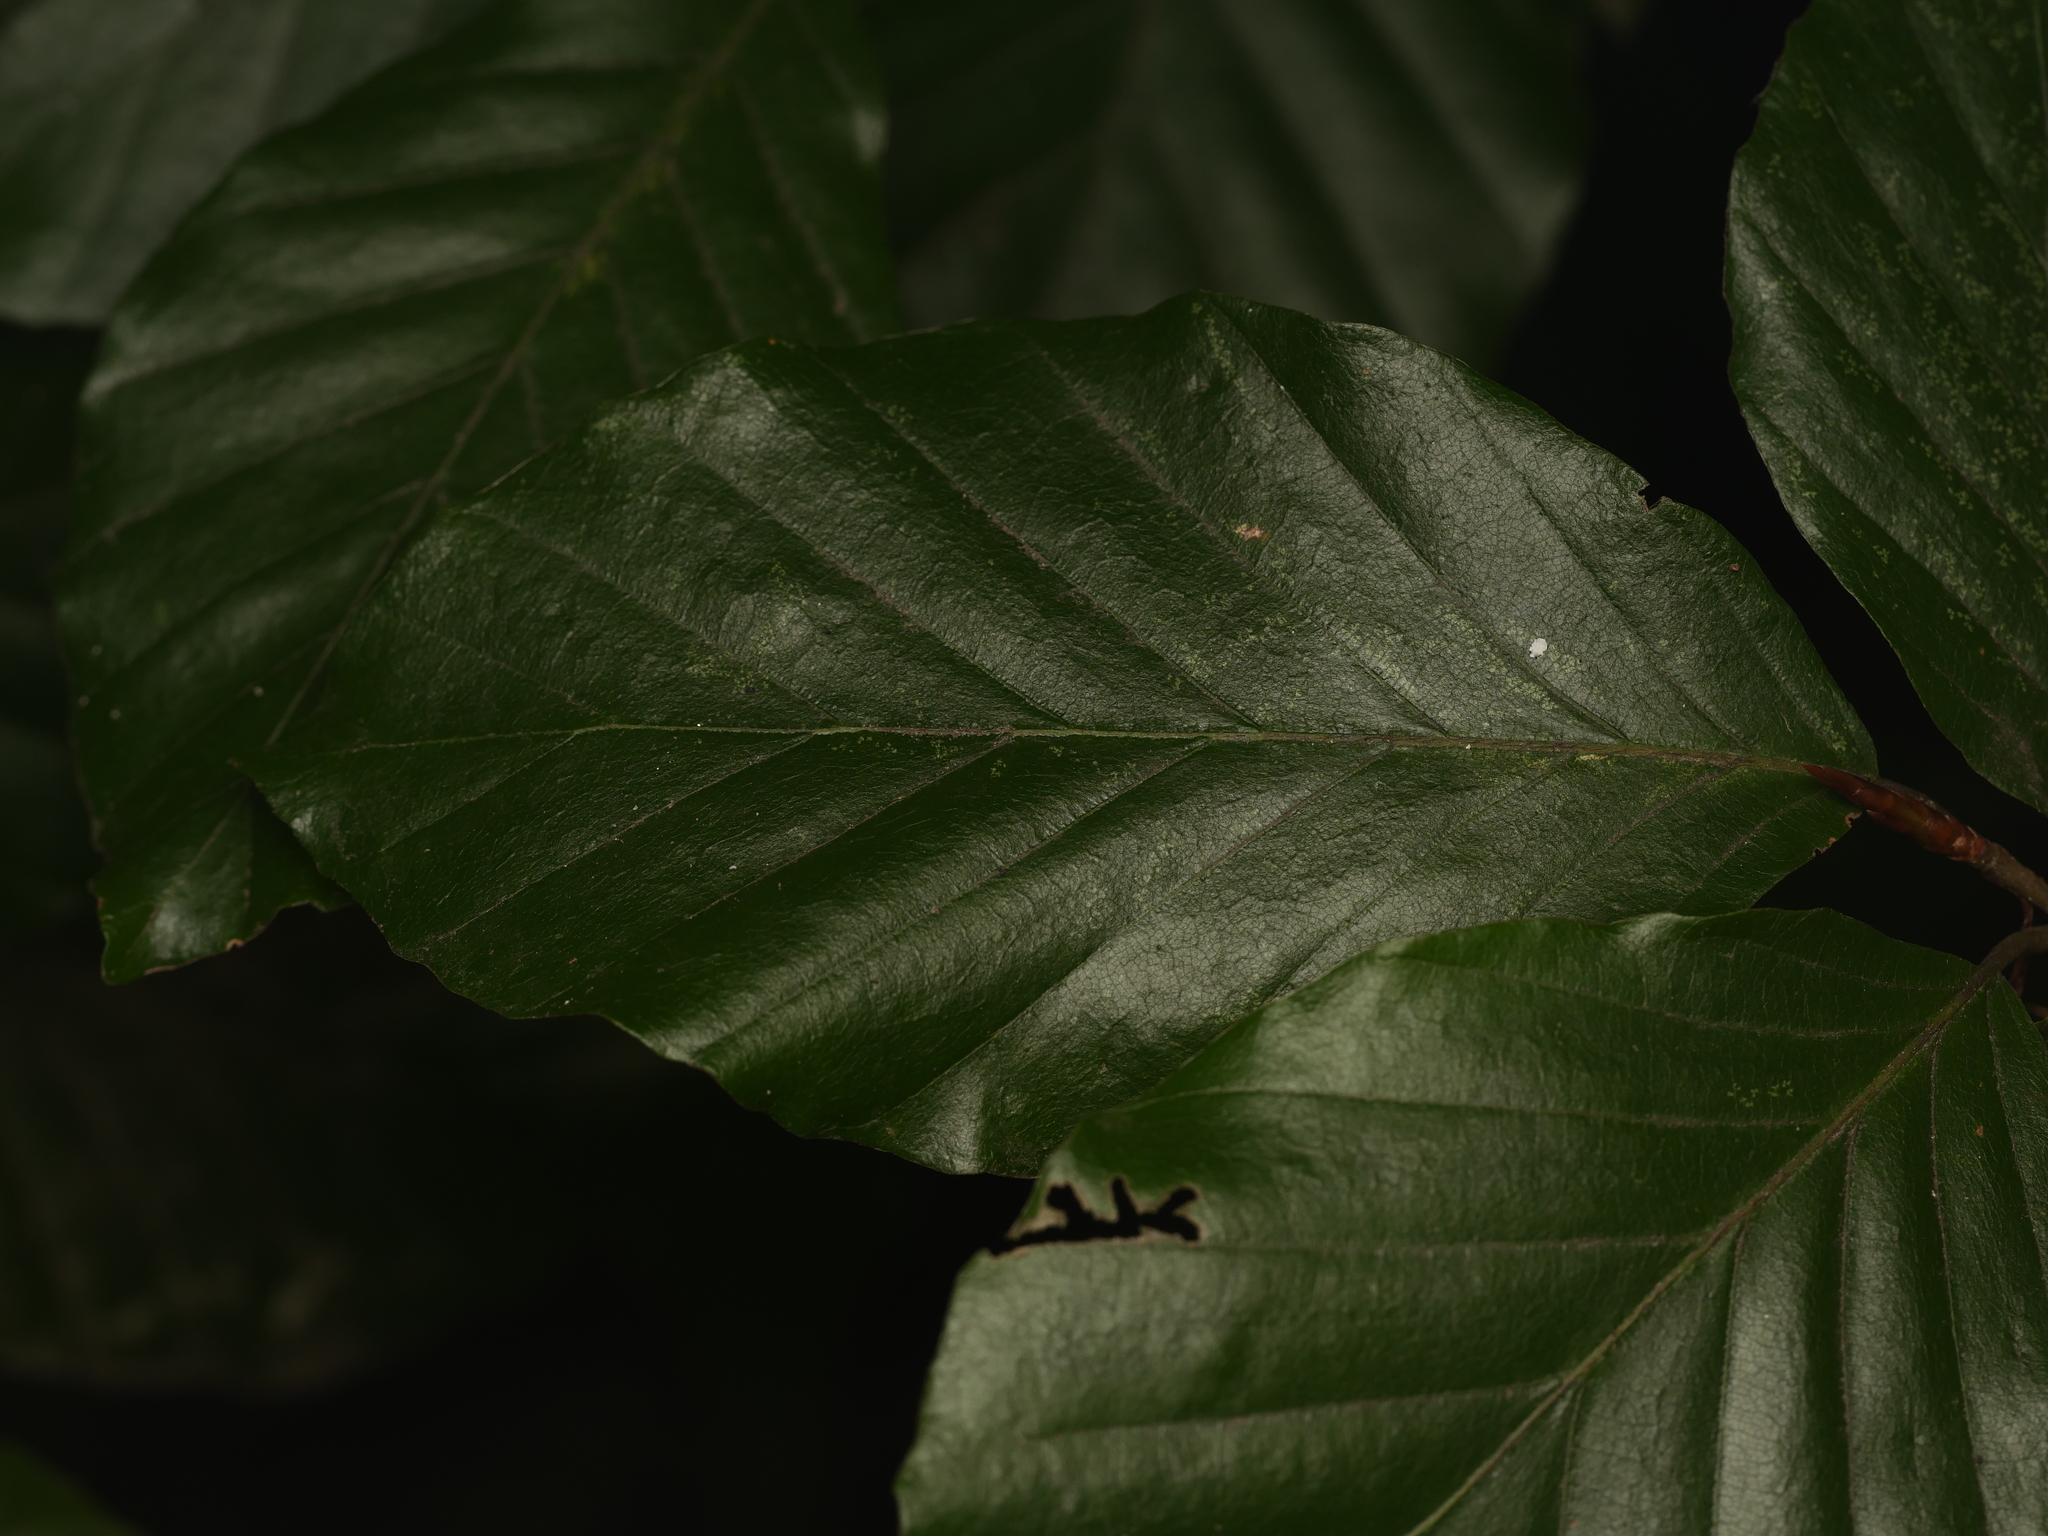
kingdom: Plantae
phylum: Tracheophyta
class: Magnoliopsida
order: Fagales
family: Fagaceae
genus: Fagus
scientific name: Fagus sylvatica
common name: Beech
